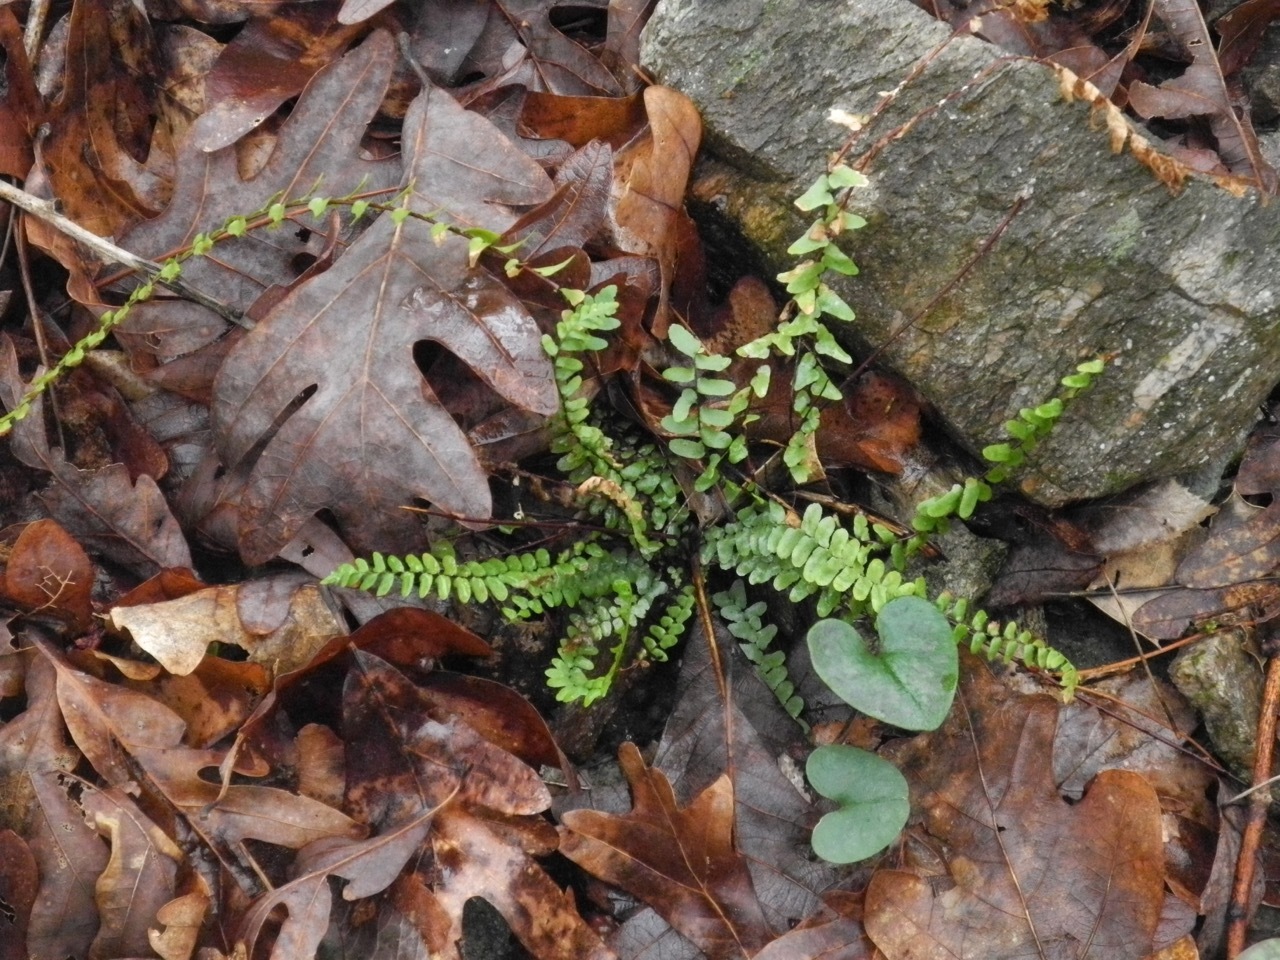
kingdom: Plantae
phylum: Tracheophyta
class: Polypodiopsida
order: Polypodiales
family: Aspleniaceae
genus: Asplenium
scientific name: Asplenium platyneuron
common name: Ebony spleenwort
